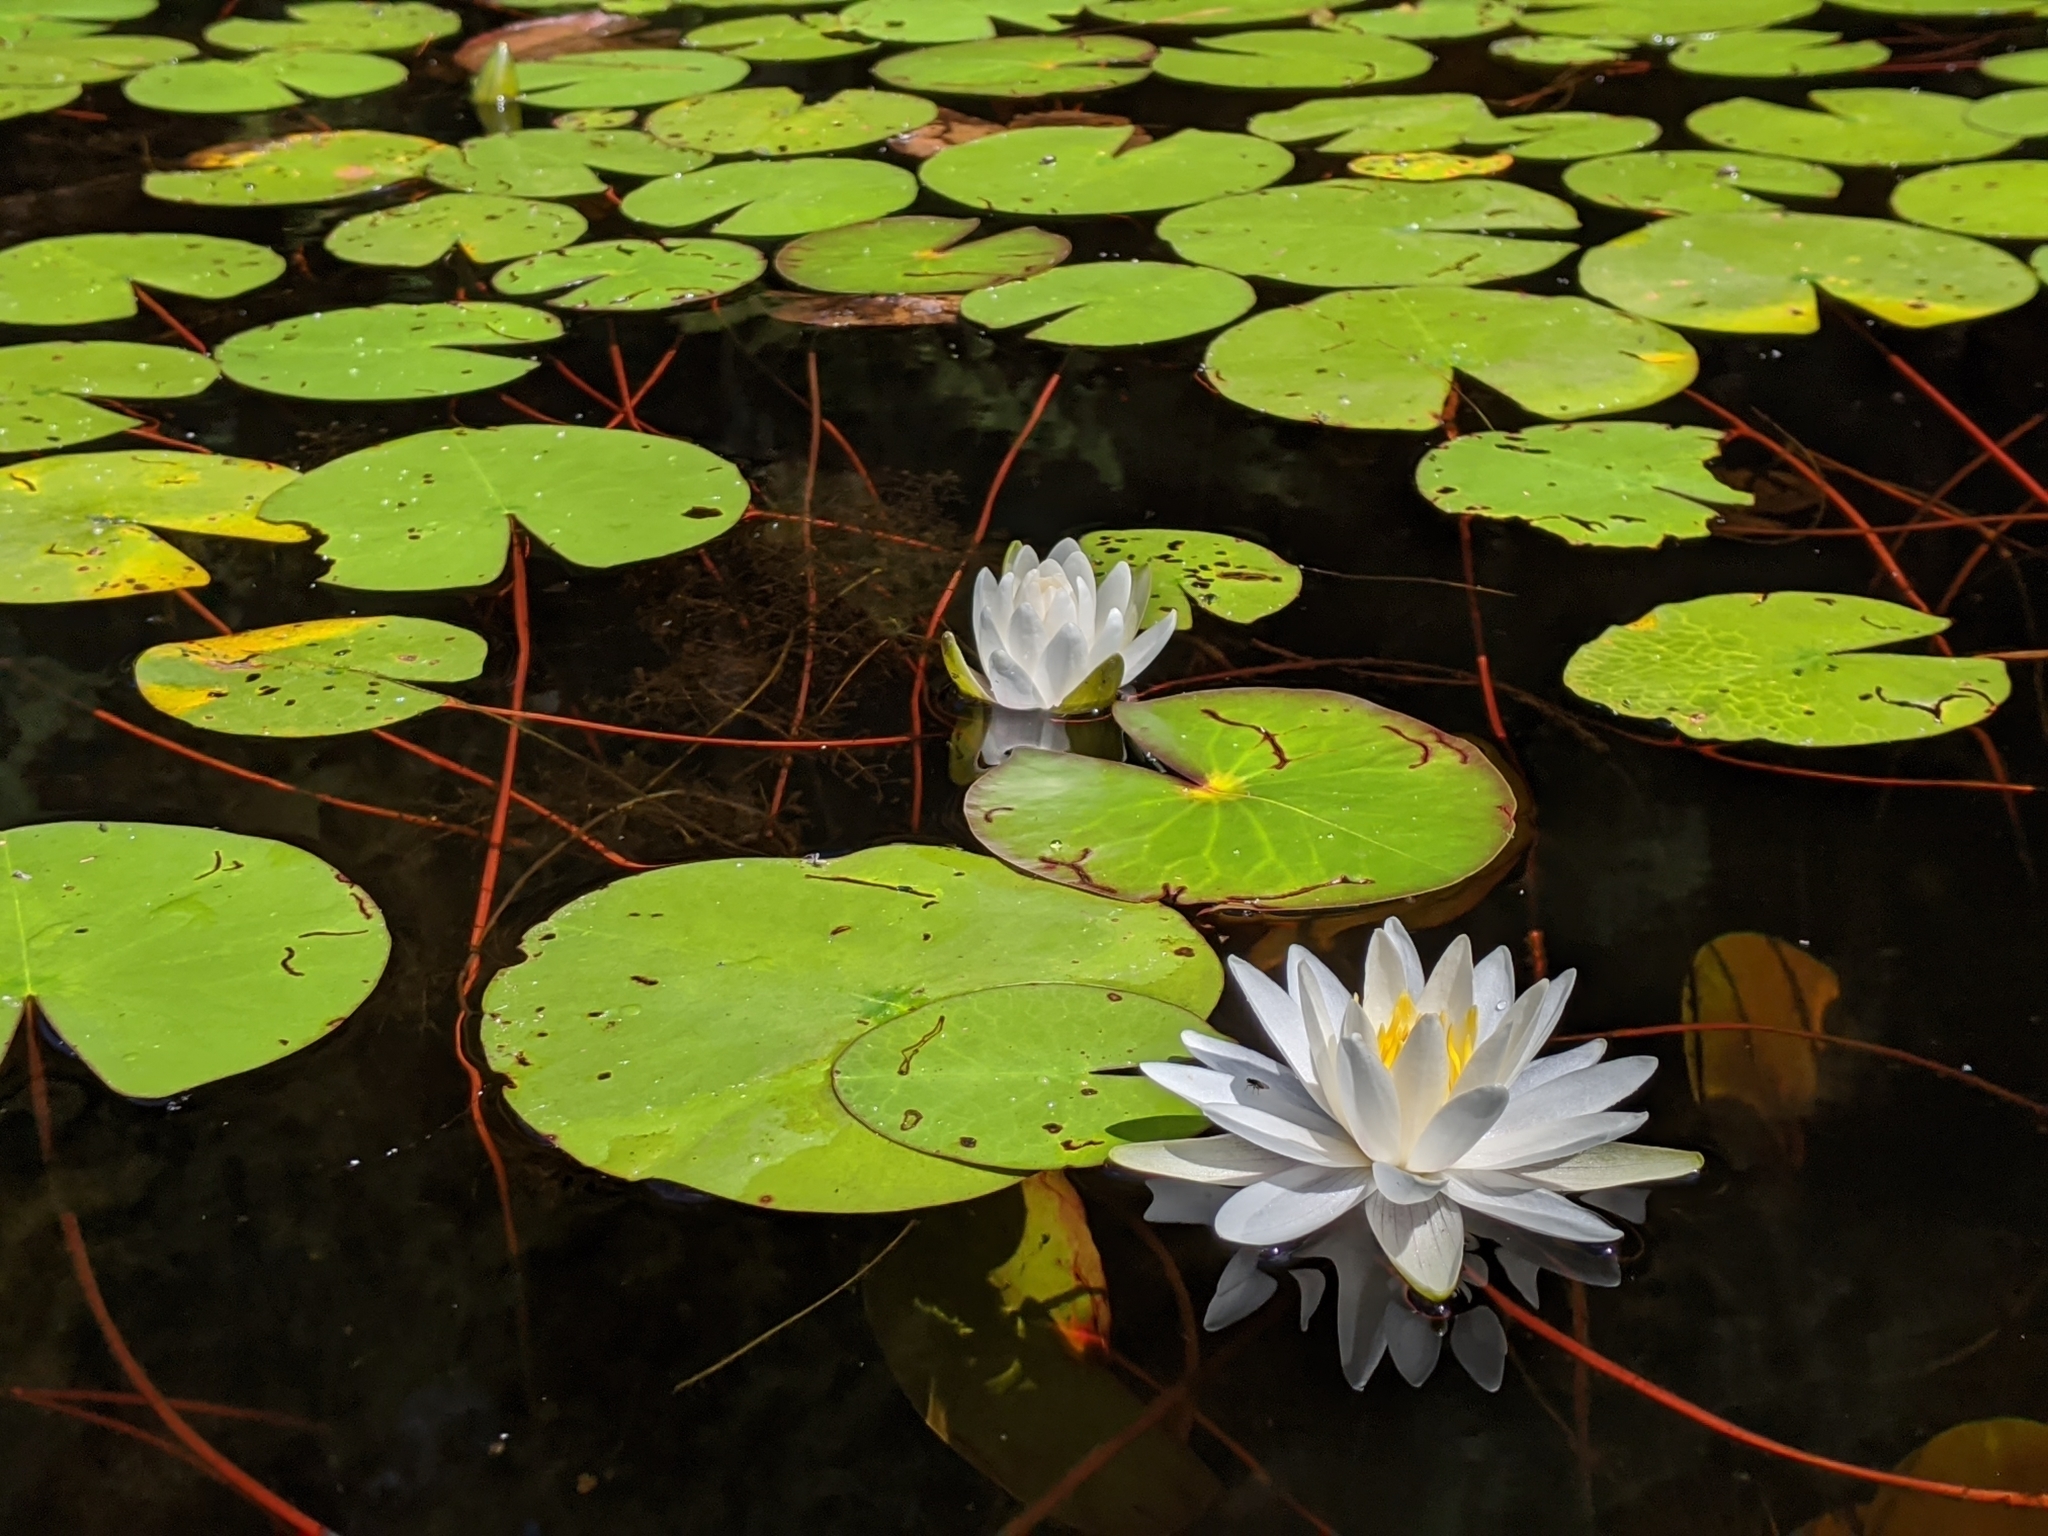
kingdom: Plantae
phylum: Tracheophyta
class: Magnoliopsida
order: Nymphaeales
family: Nymphaeaceae
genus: Nymphaea
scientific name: Nymphaea odorata
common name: Fragrant water-lily
